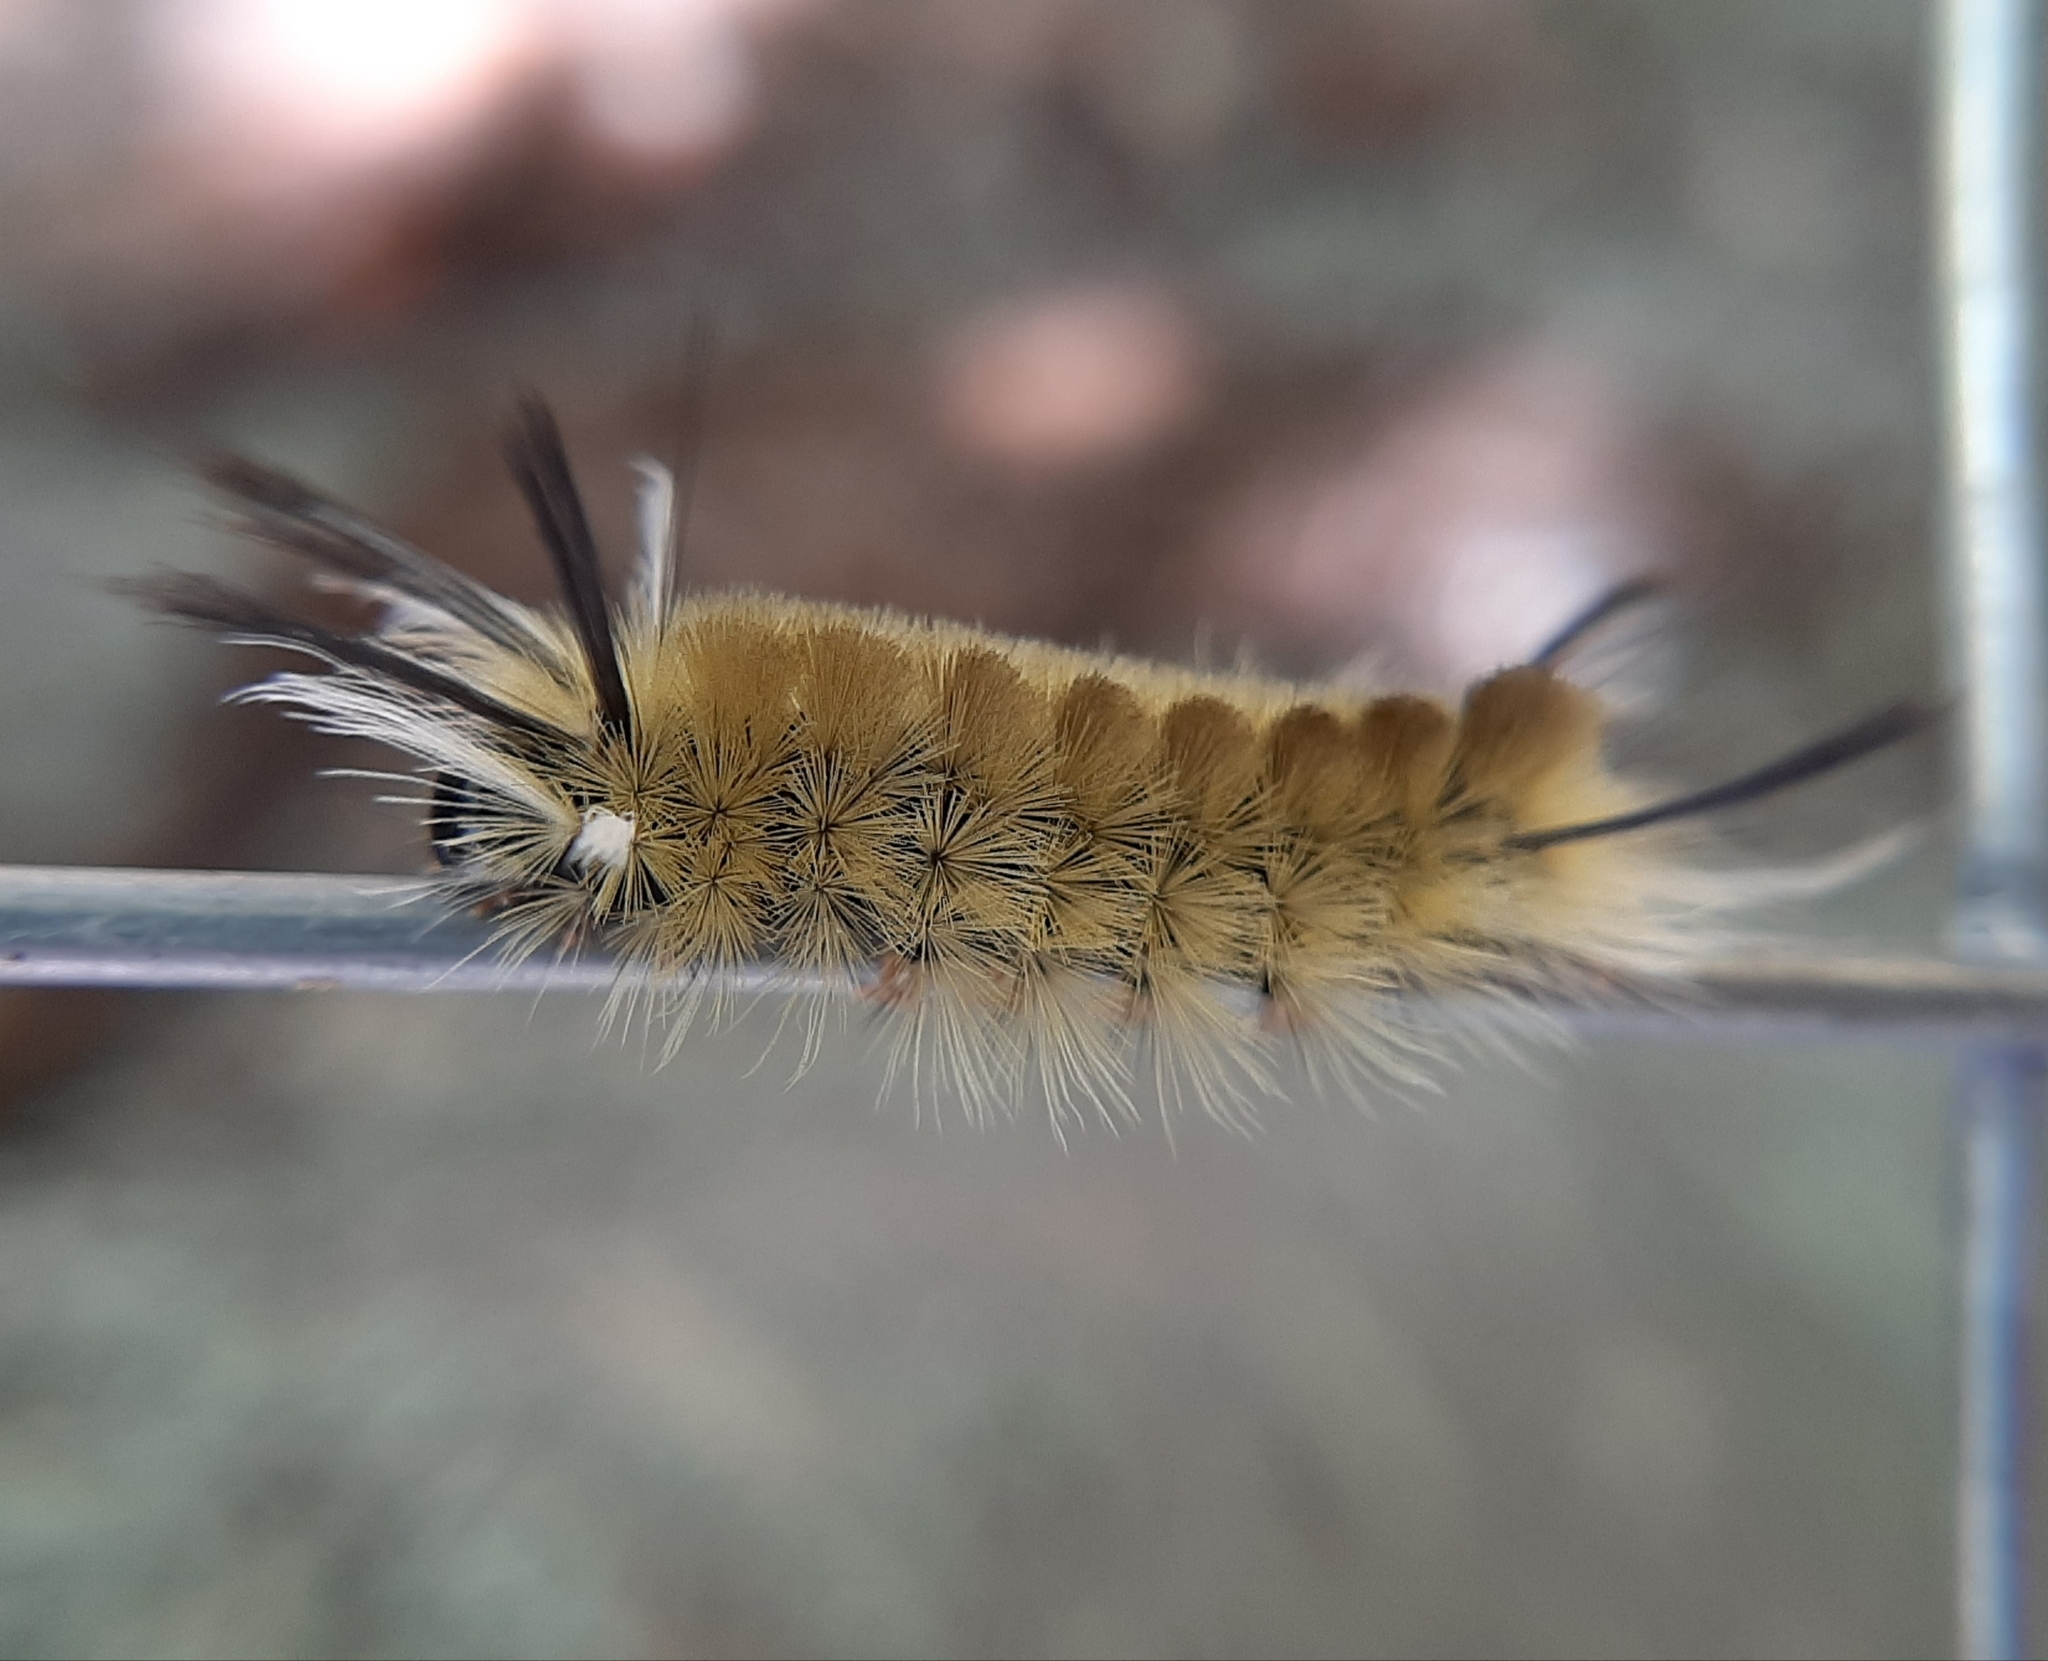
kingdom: Animalia
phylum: Arthropoda
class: Insecta
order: Lepidoptera
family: Erebidae
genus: Halysidota
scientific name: Halysidota tessellaris
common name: Banded tussock moth
